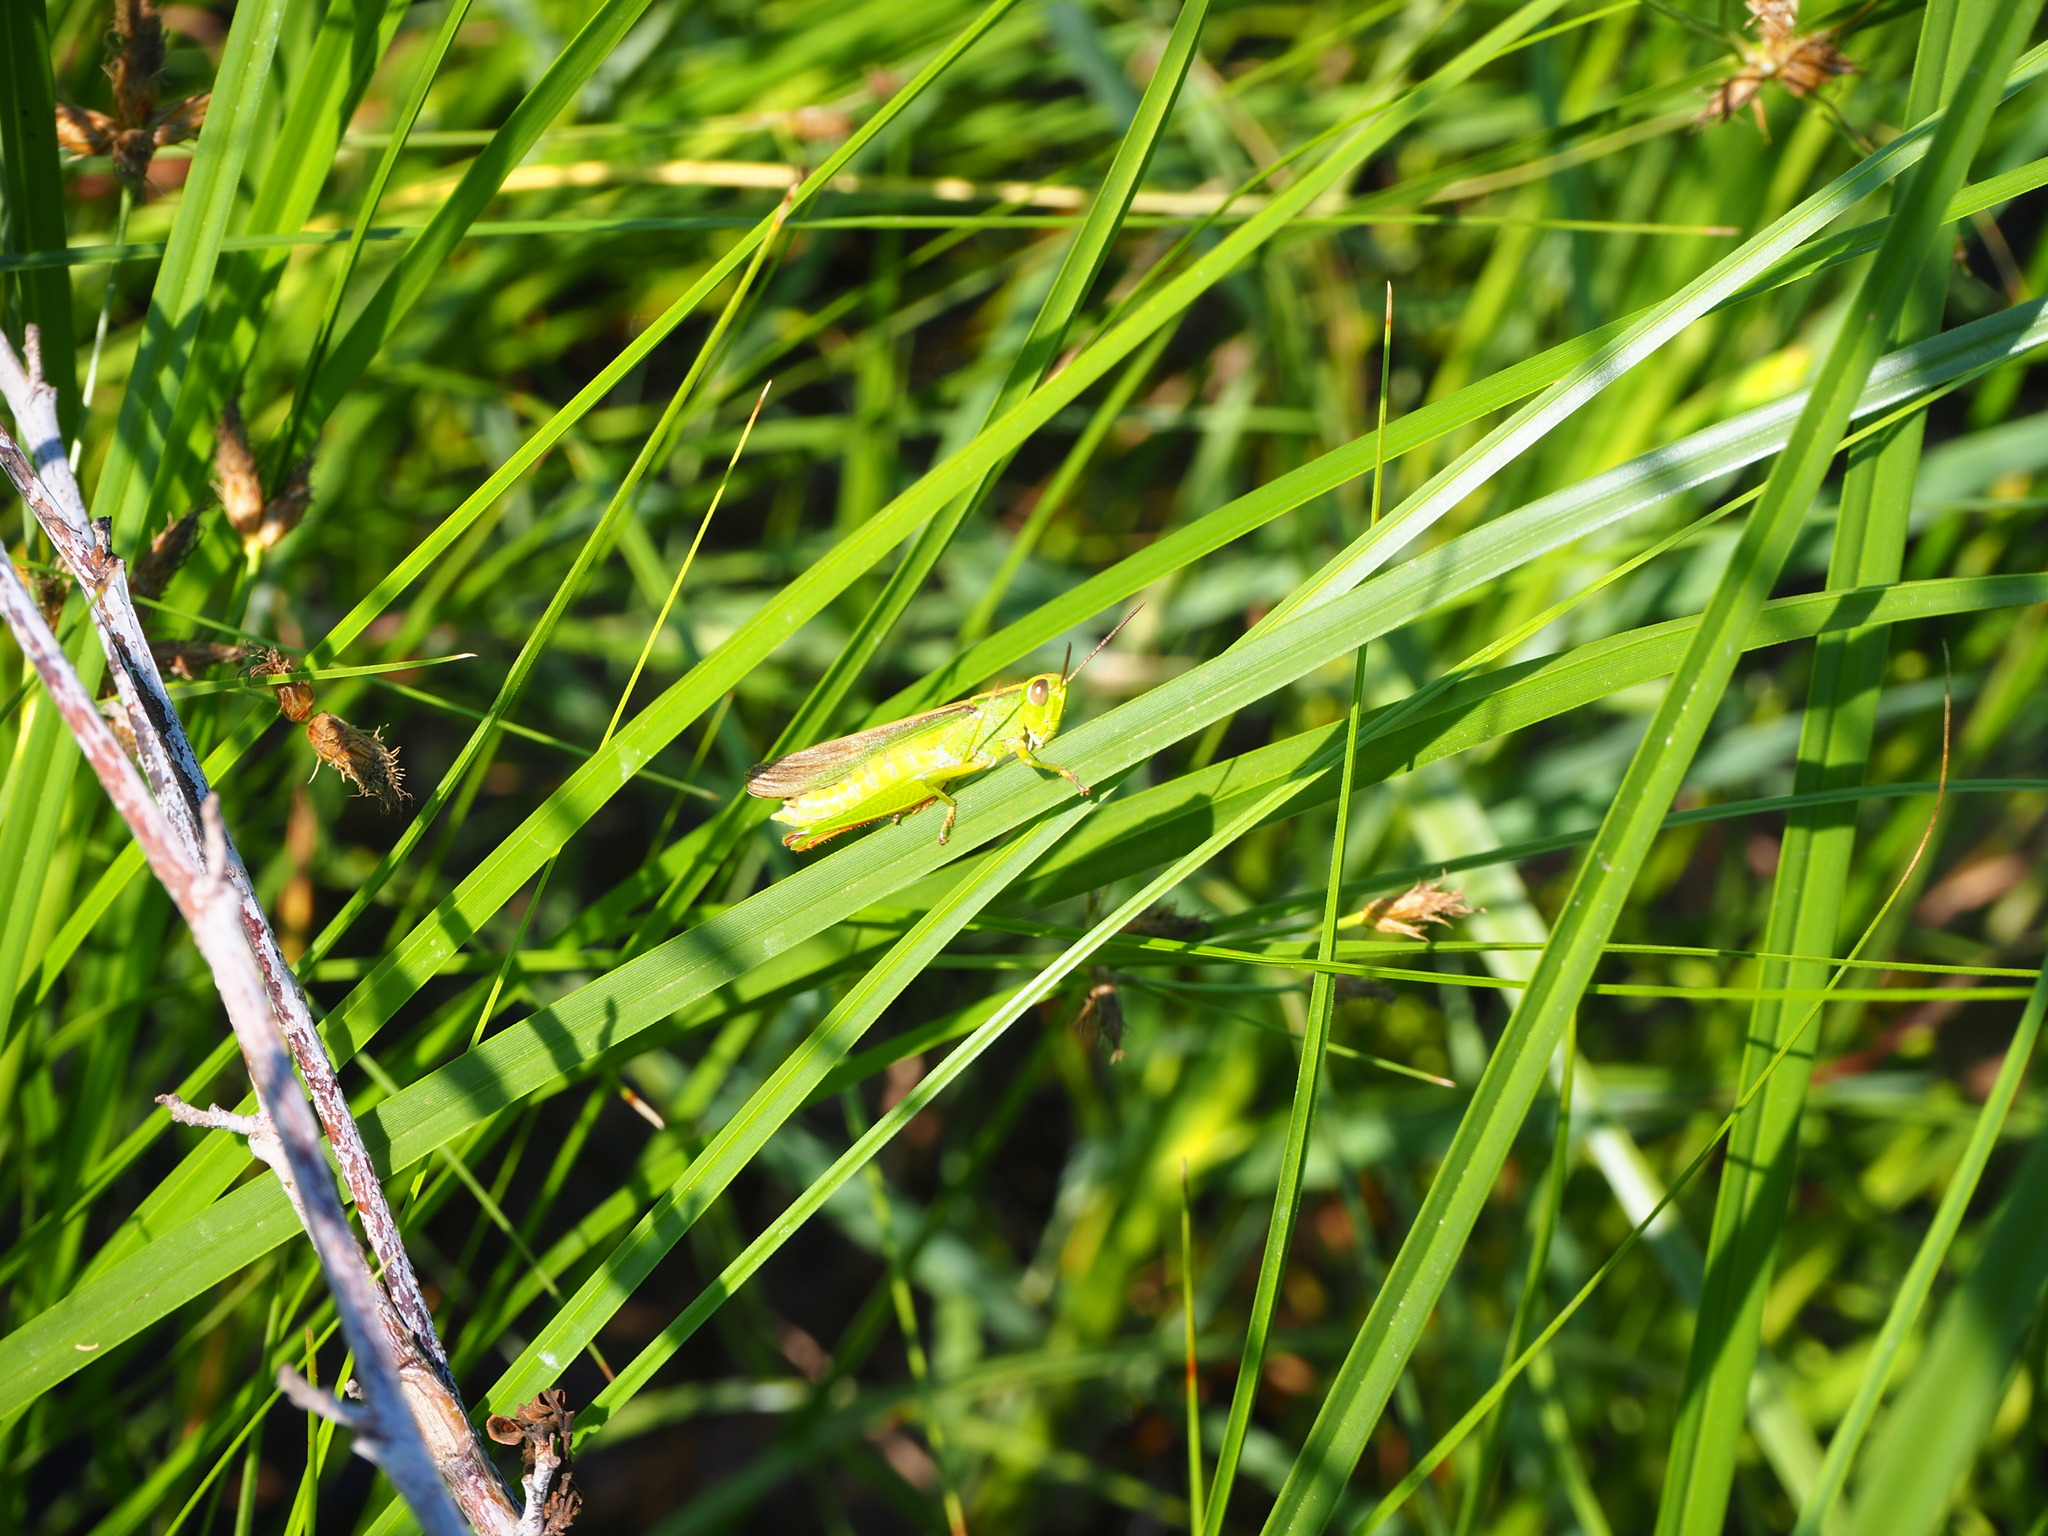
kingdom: Animalia
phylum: Arthropoda
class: Insecta
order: Orthoptera
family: Acrididae
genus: Paracinema
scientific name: Paracinema tricolor
